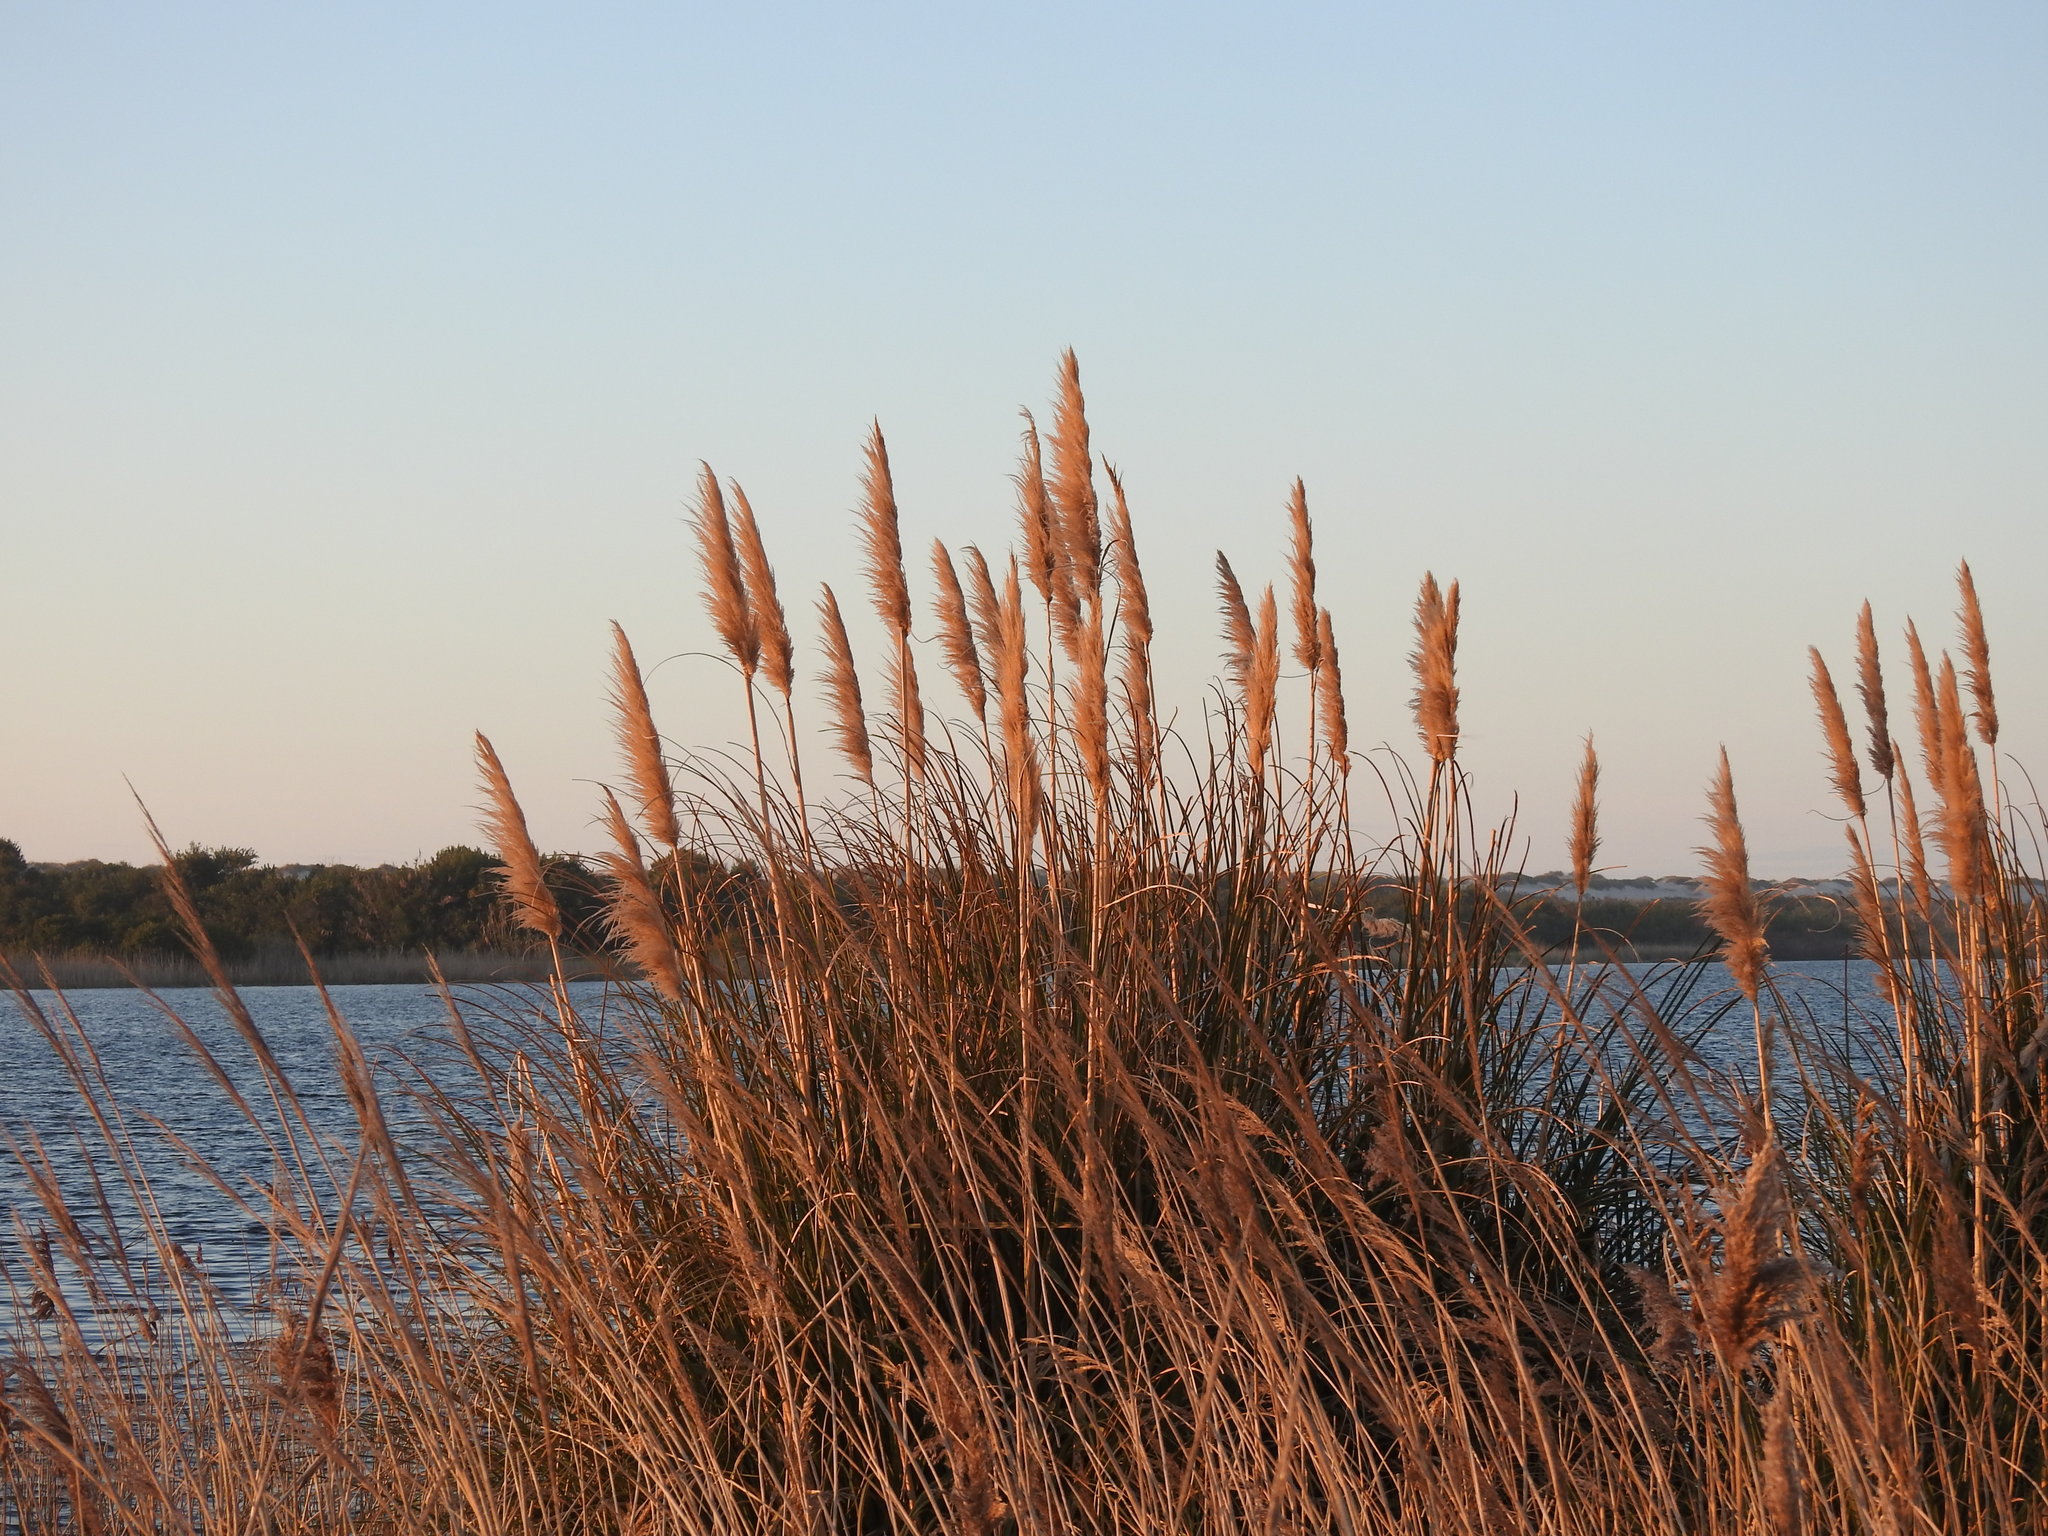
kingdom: Plantae
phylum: Tracheophyta
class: Liliopsida
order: Poales
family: Poaceae
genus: Cortaderia
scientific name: Cortaderia selloana
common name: Uruguayan pampas grass
